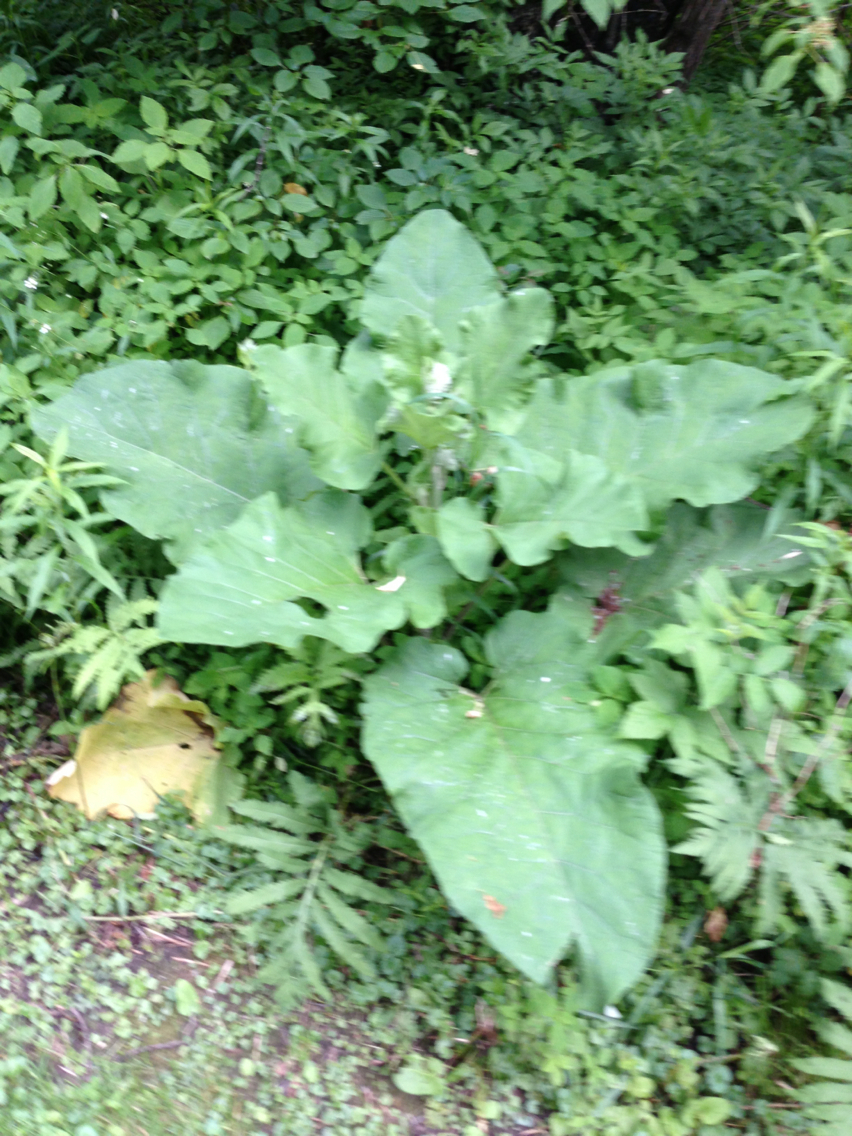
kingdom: Plantae
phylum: Tracheophyta
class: Magnoliopsida
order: Asterales
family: Asteraceae
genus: Arctium
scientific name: Arctium
